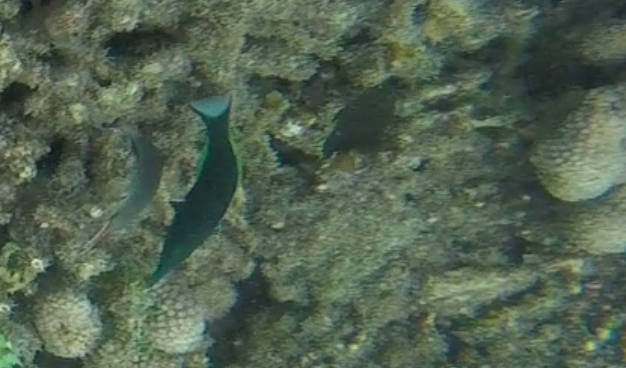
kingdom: Animalia
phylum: Chordata
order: Perciformes
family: Labridae
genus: Gomphosus
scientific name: Gomphosus caeruleus
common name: Bird wrasse
